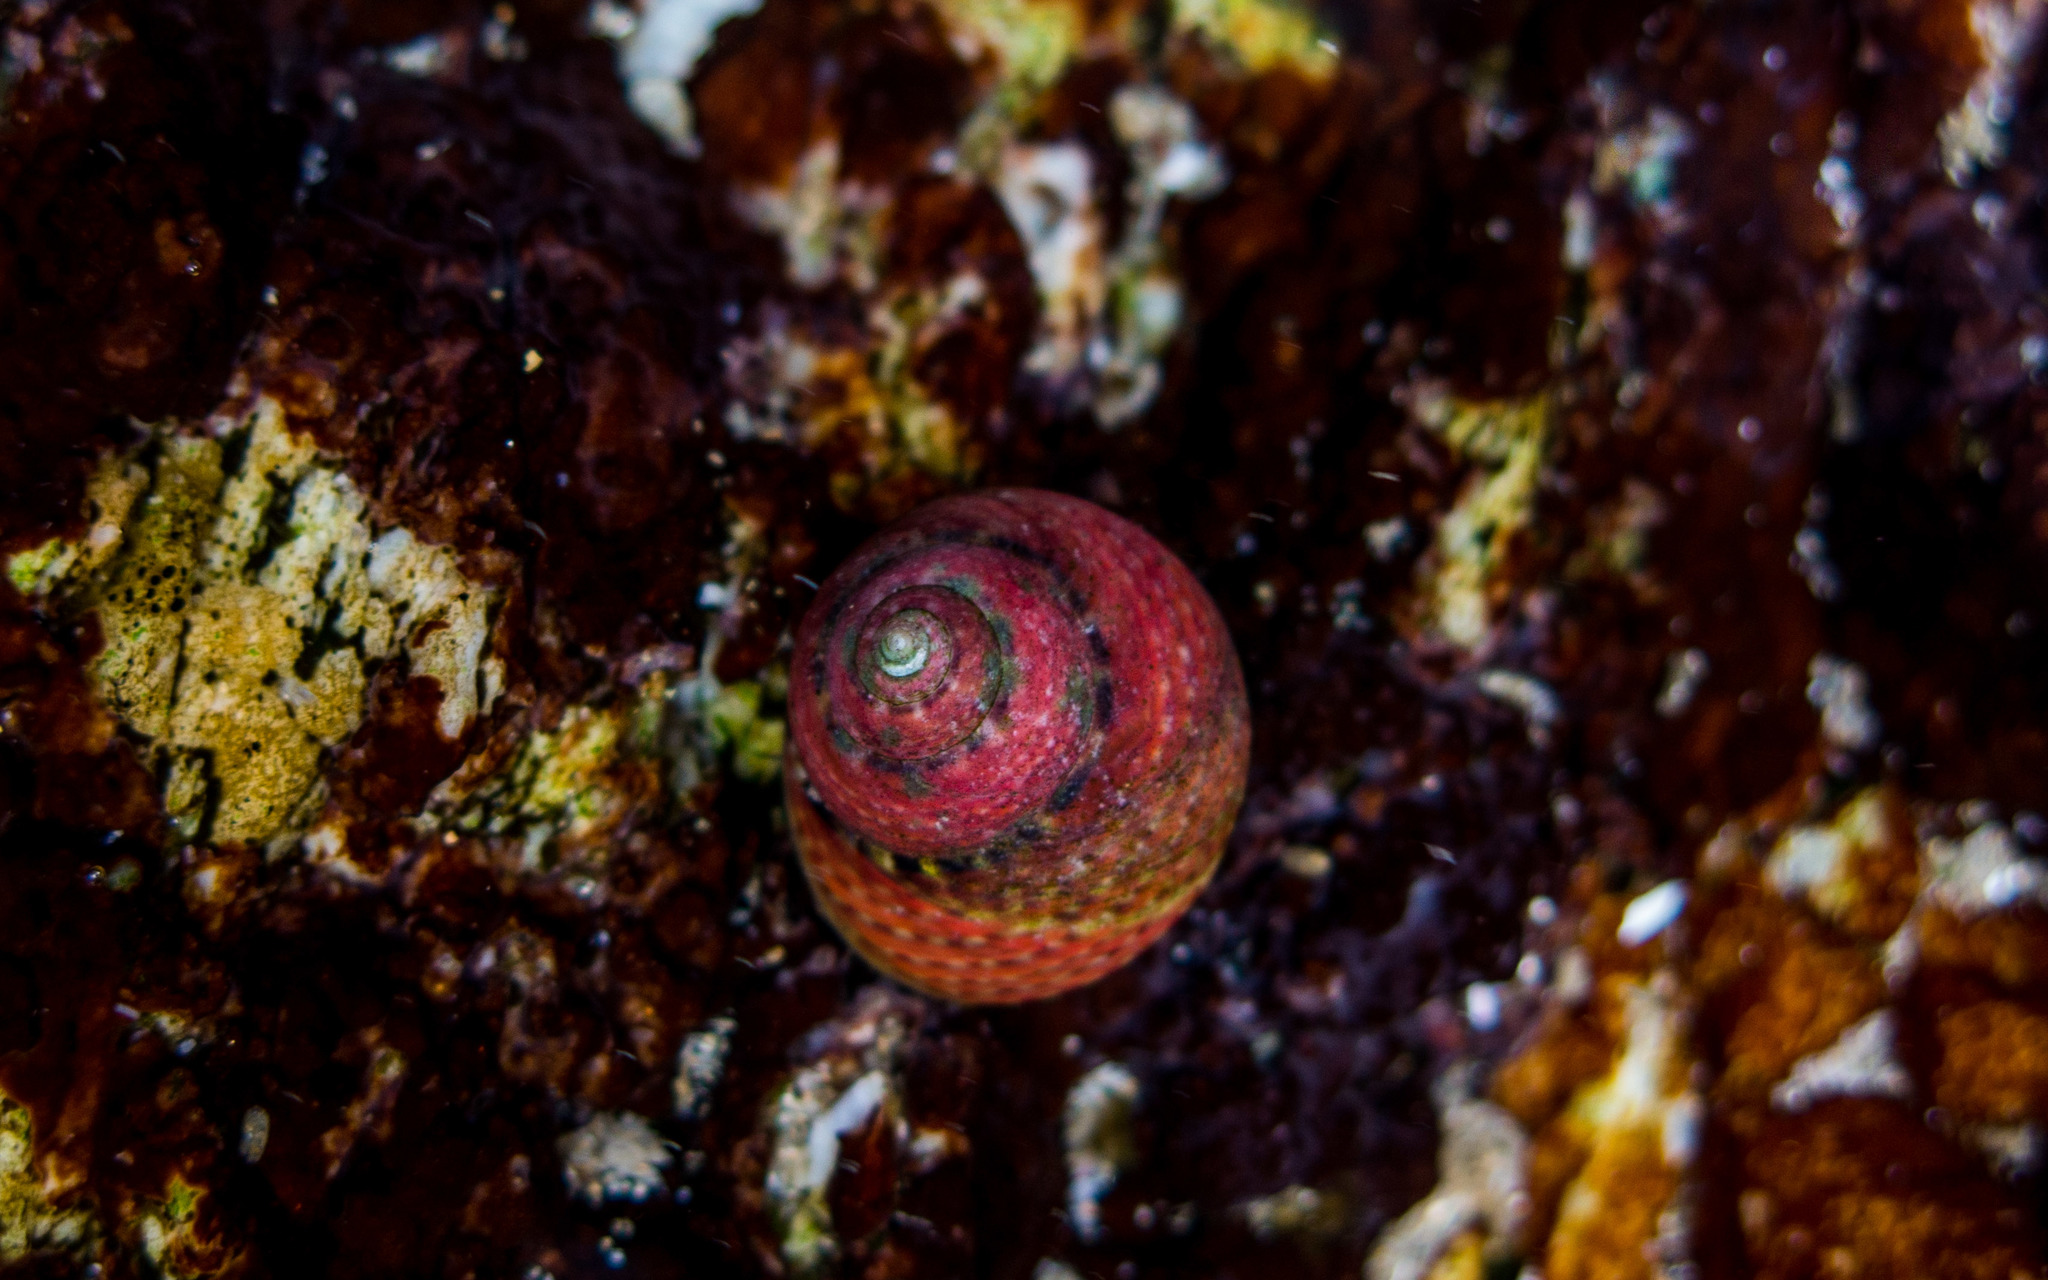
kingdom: Animalia
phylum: Mollusca
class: Gastropoda
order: Trochida
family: Trochidae
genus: Oxystele
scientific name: Oxystele impervia
